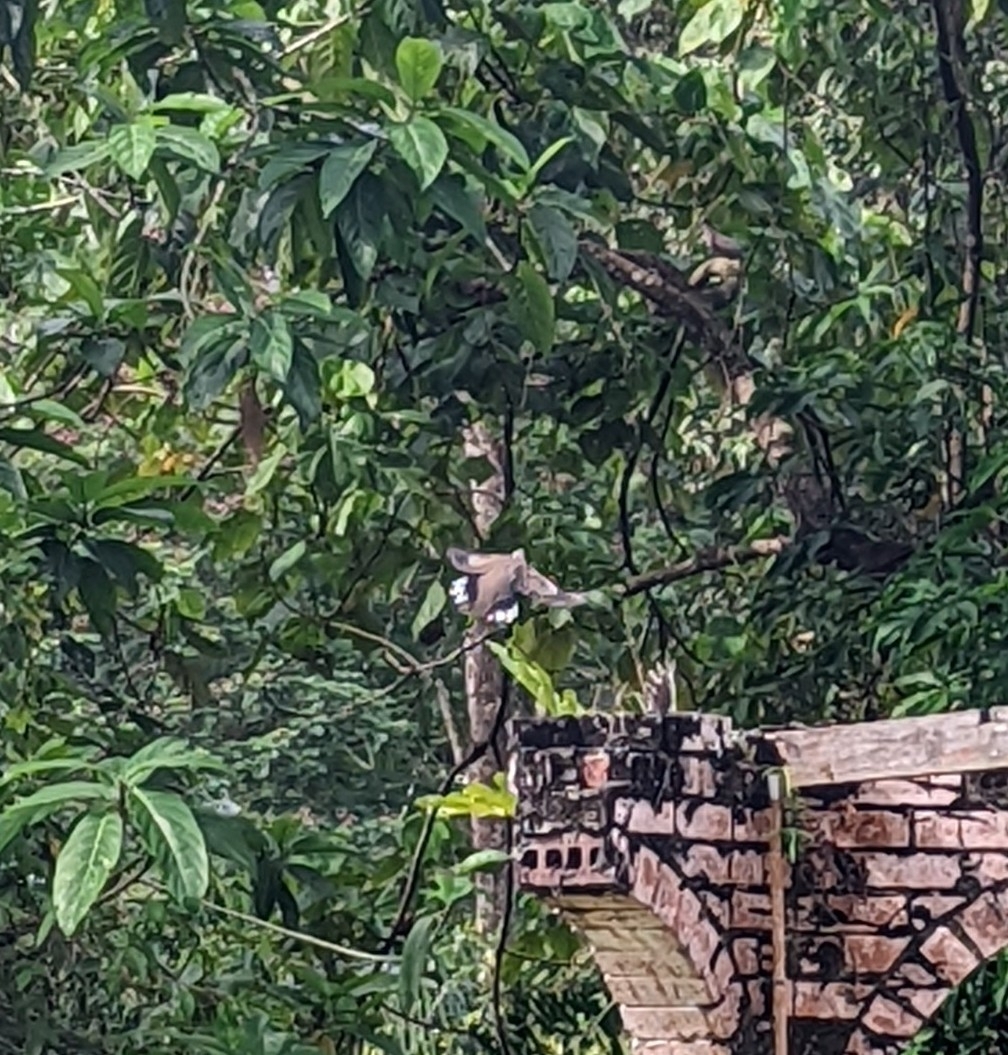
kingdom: Animalia
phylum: Chordata
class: Aves
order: Columbiformes
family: Columbidae
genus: Spilopelia
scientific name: Spilopelia chinensis
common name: Spotted dove
